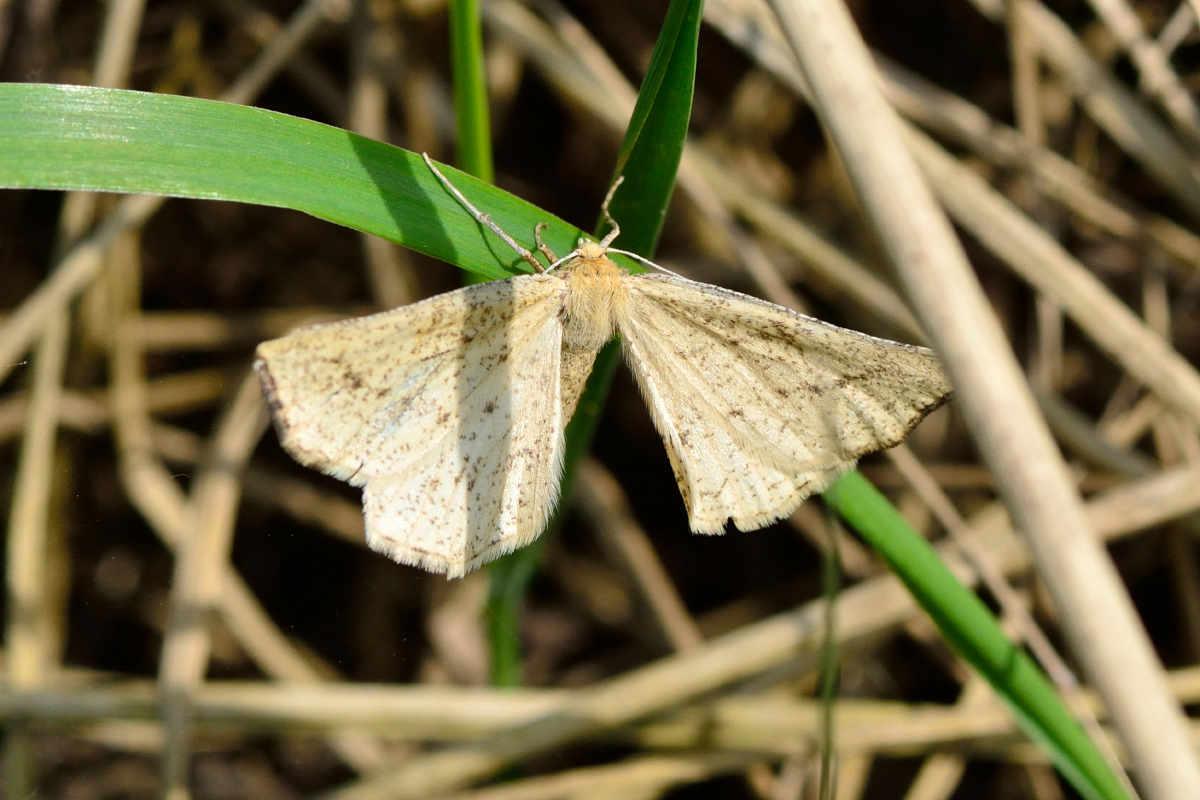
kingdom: Animalia
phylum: Arthropoda
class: Insecta
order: Lepidoptera
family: Geometridae
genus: Hypoxystis
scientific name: Hypoxystis pluviaria
